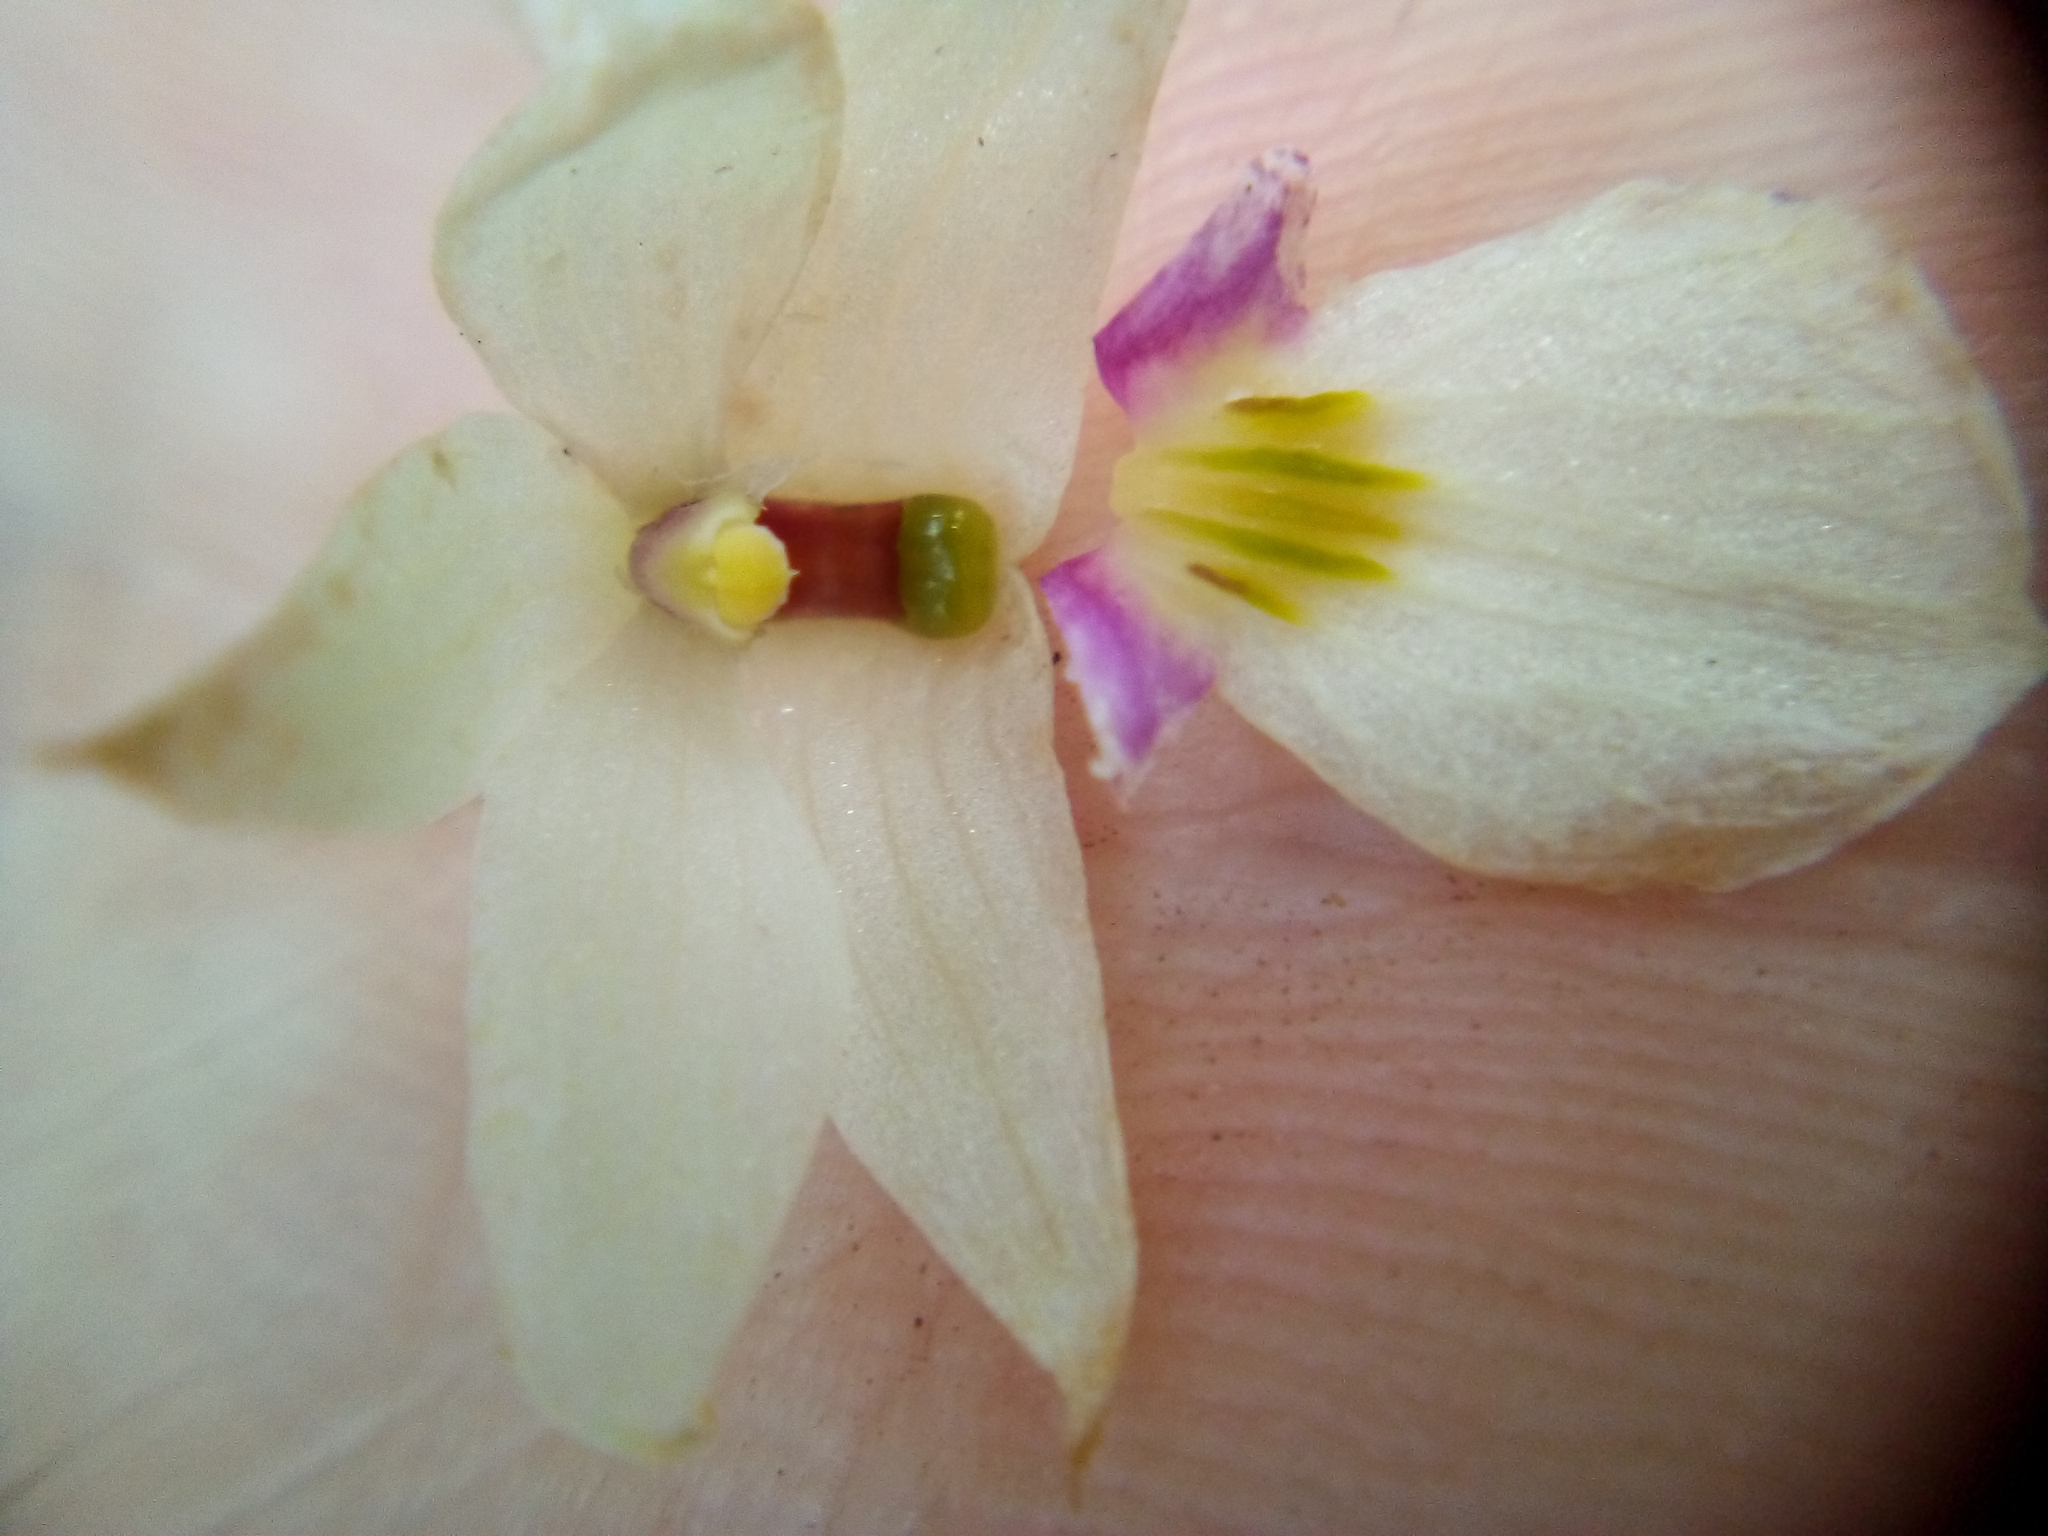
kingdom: Plantae
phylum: Tracheophyta
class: Liliopsida
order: Asparagales
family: Orchidaceae
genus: Dendrobium
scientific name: Dendrobium cunninghamii
